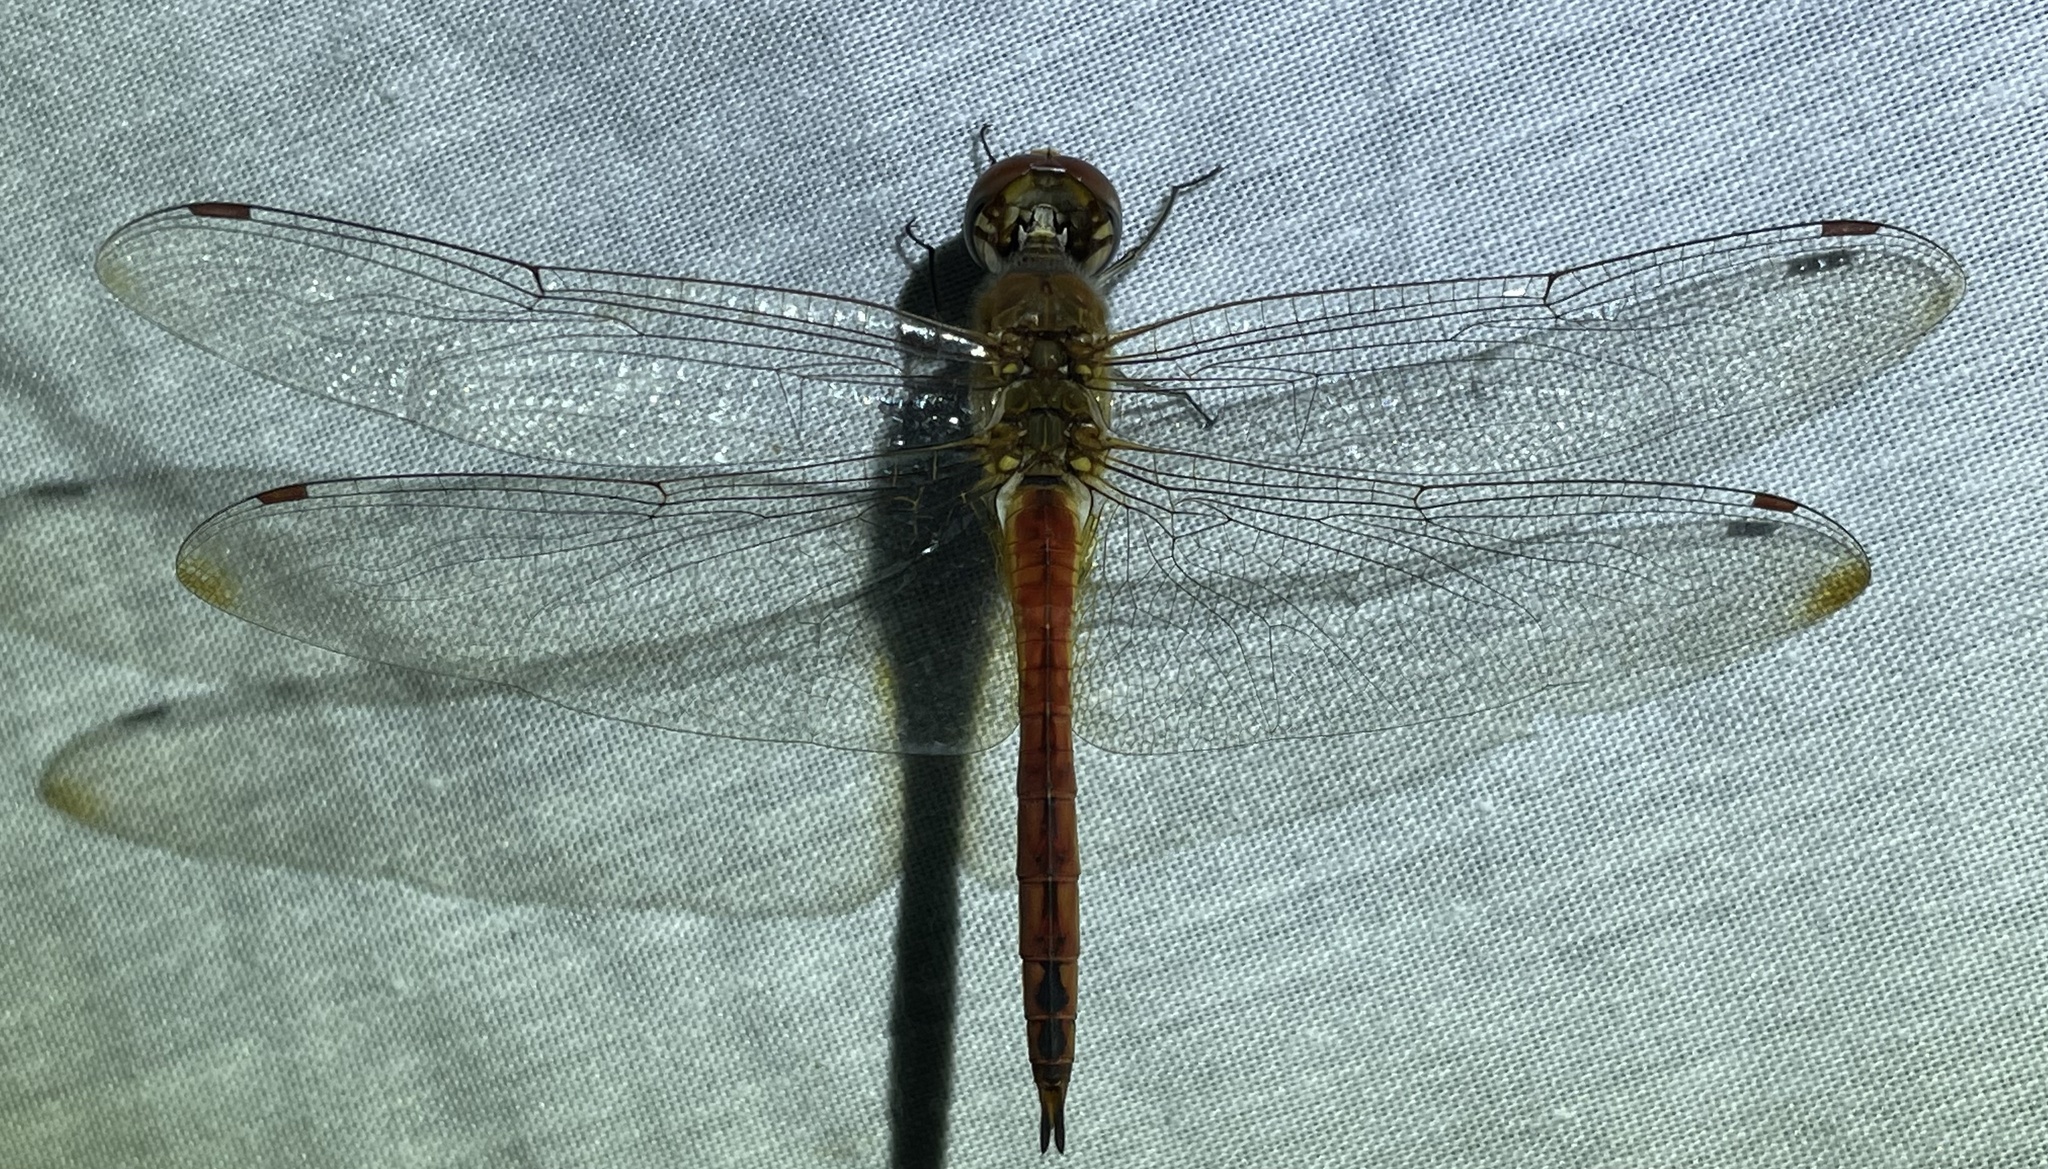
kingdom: Animalia
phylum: Arthropoda
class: Insecta
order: Odonata
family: Libellulidae
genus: Pantala
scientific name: Pantala flavescens
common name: Wandering glider
